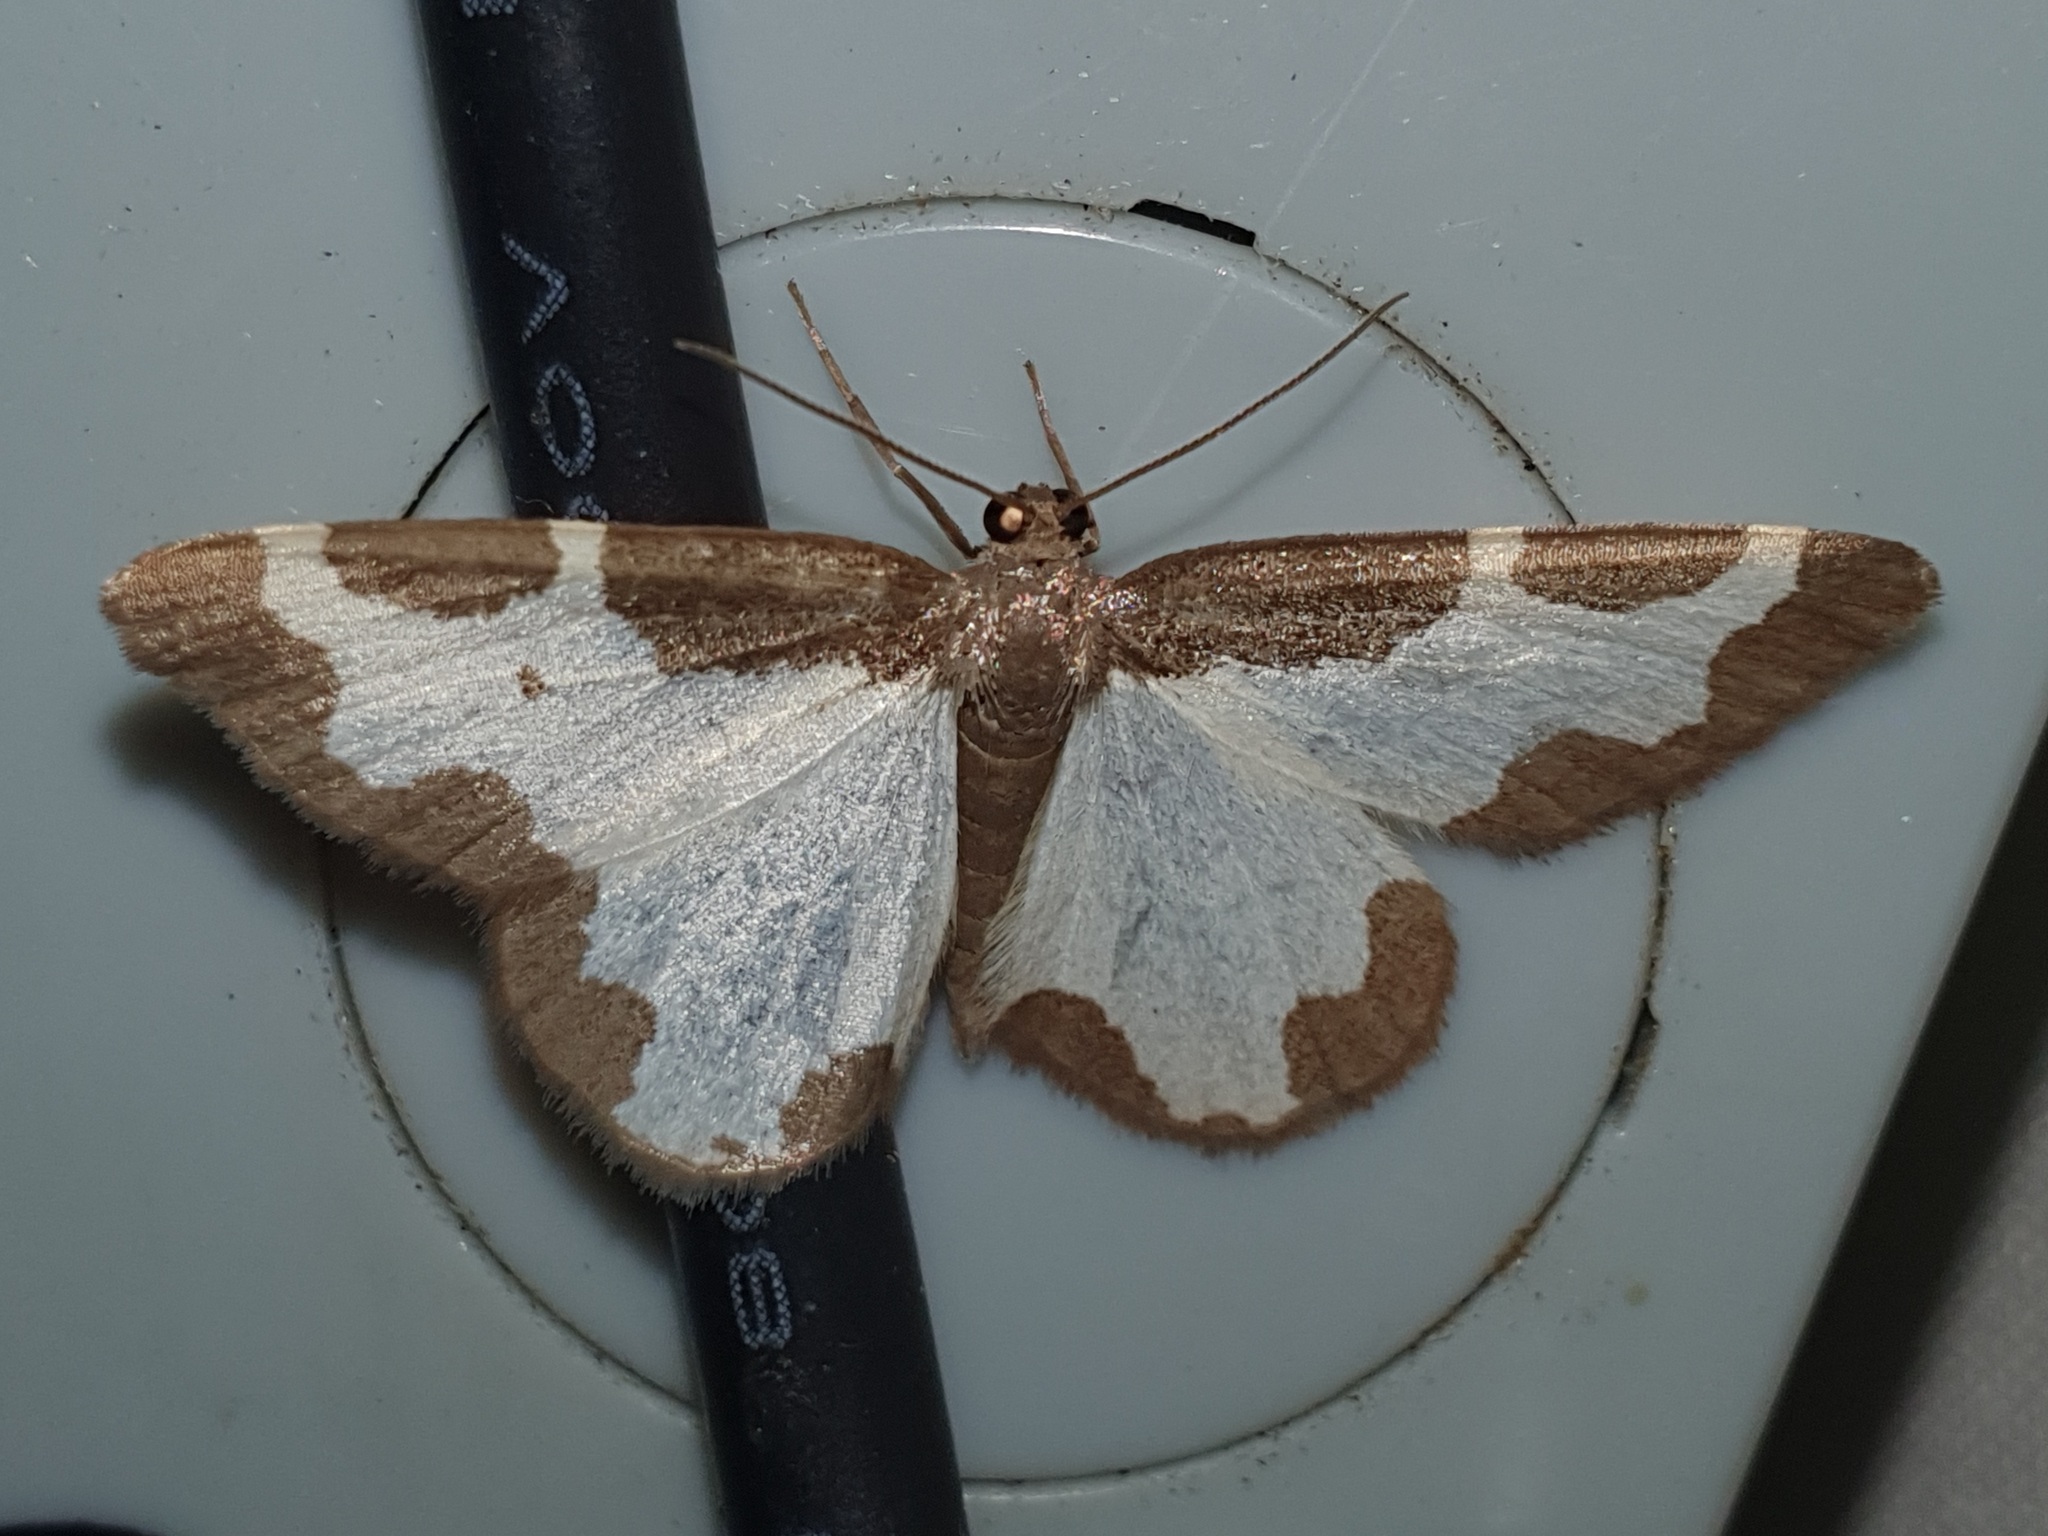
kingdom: Animalia
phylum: Arthropoda
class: Insecta
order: Lepidoptera
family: Geometridae
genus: Lomaspilis
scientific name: Lomaspilis marginata
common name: Clouded border
